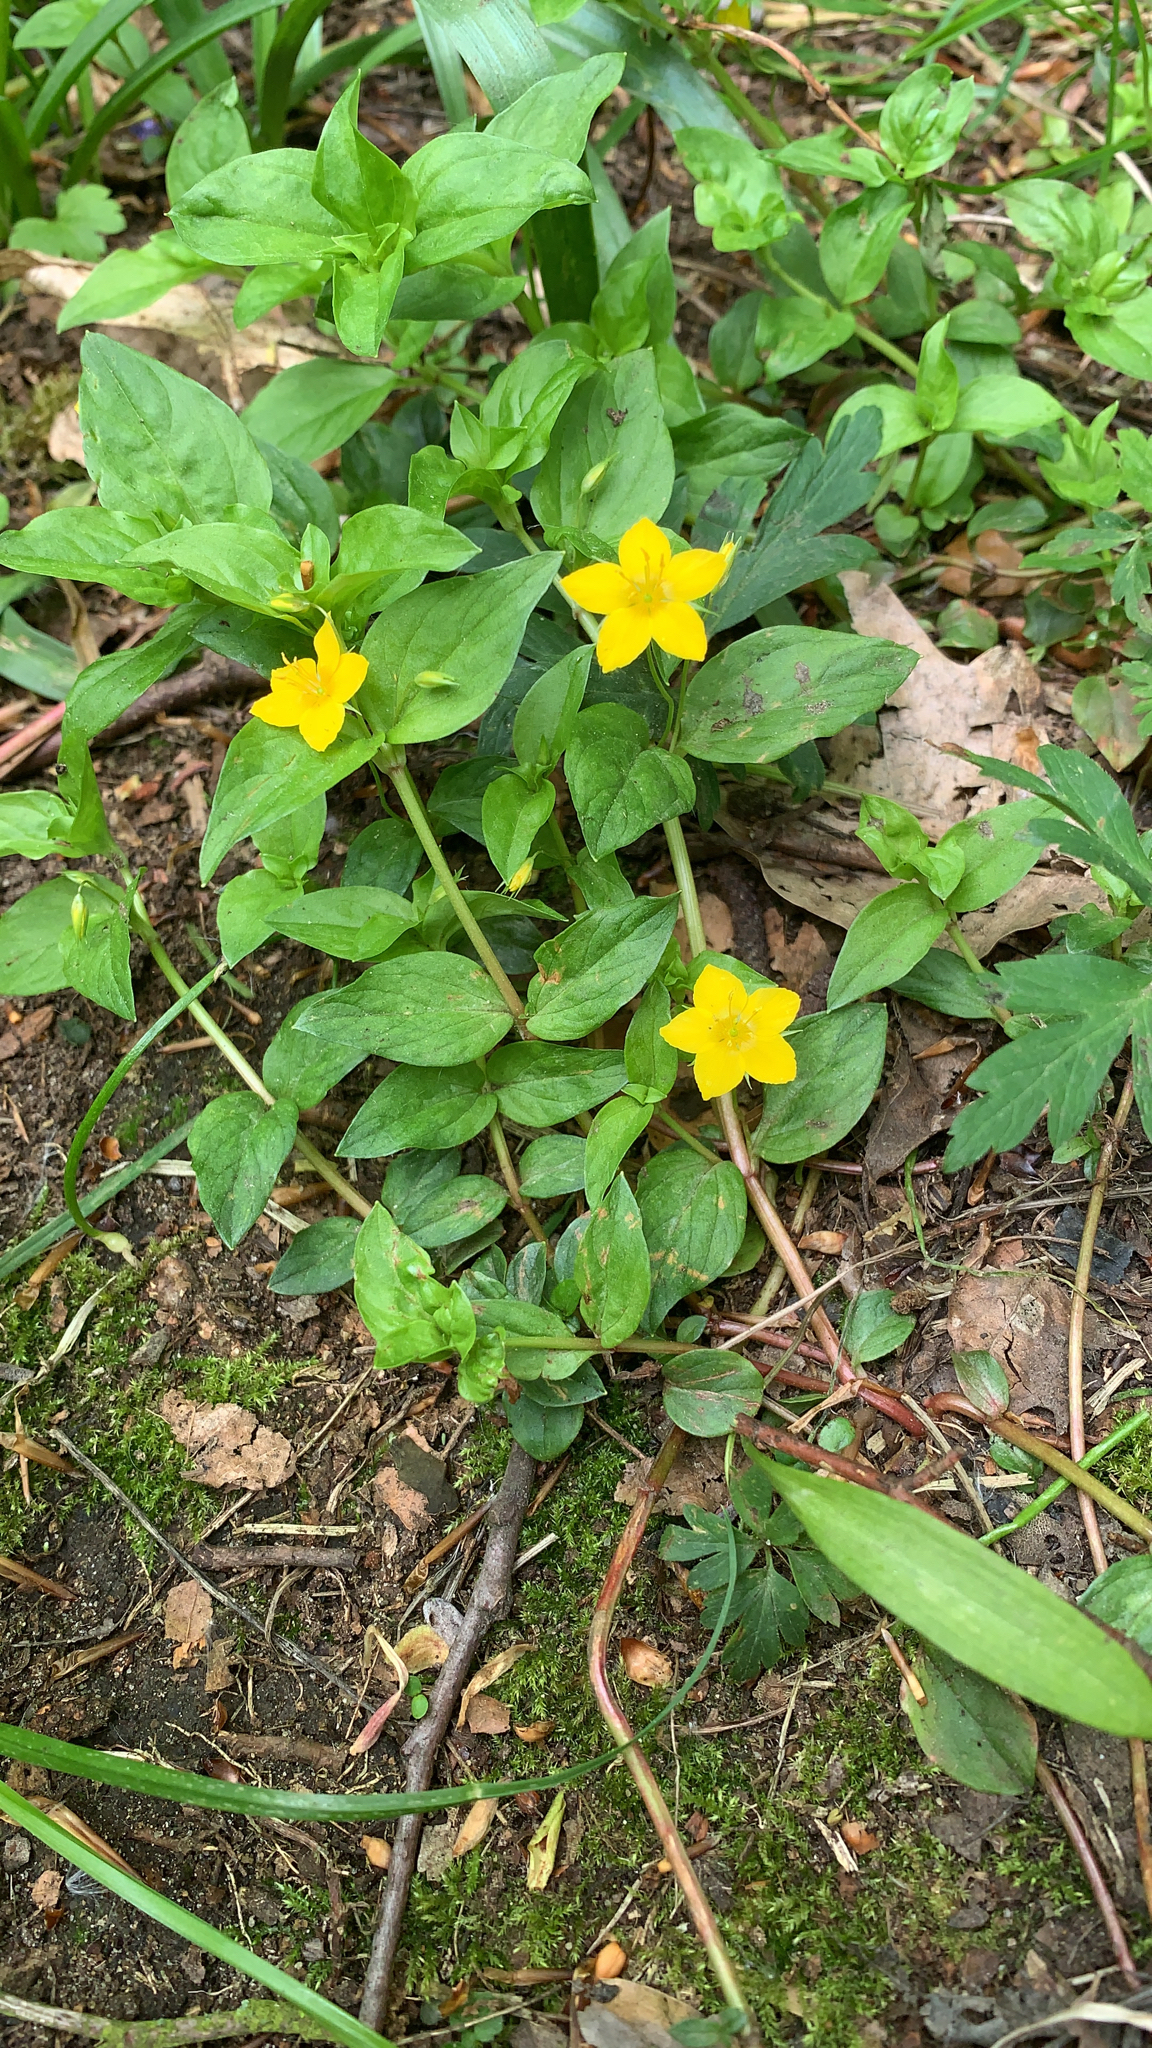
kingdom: Plantae
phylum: Tracheophyta
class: Magnoliopsida
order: Ericales
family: Primulaceae
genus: Lysimachia
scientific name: Lysimachia nemorum
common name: Yellow pimpernel
